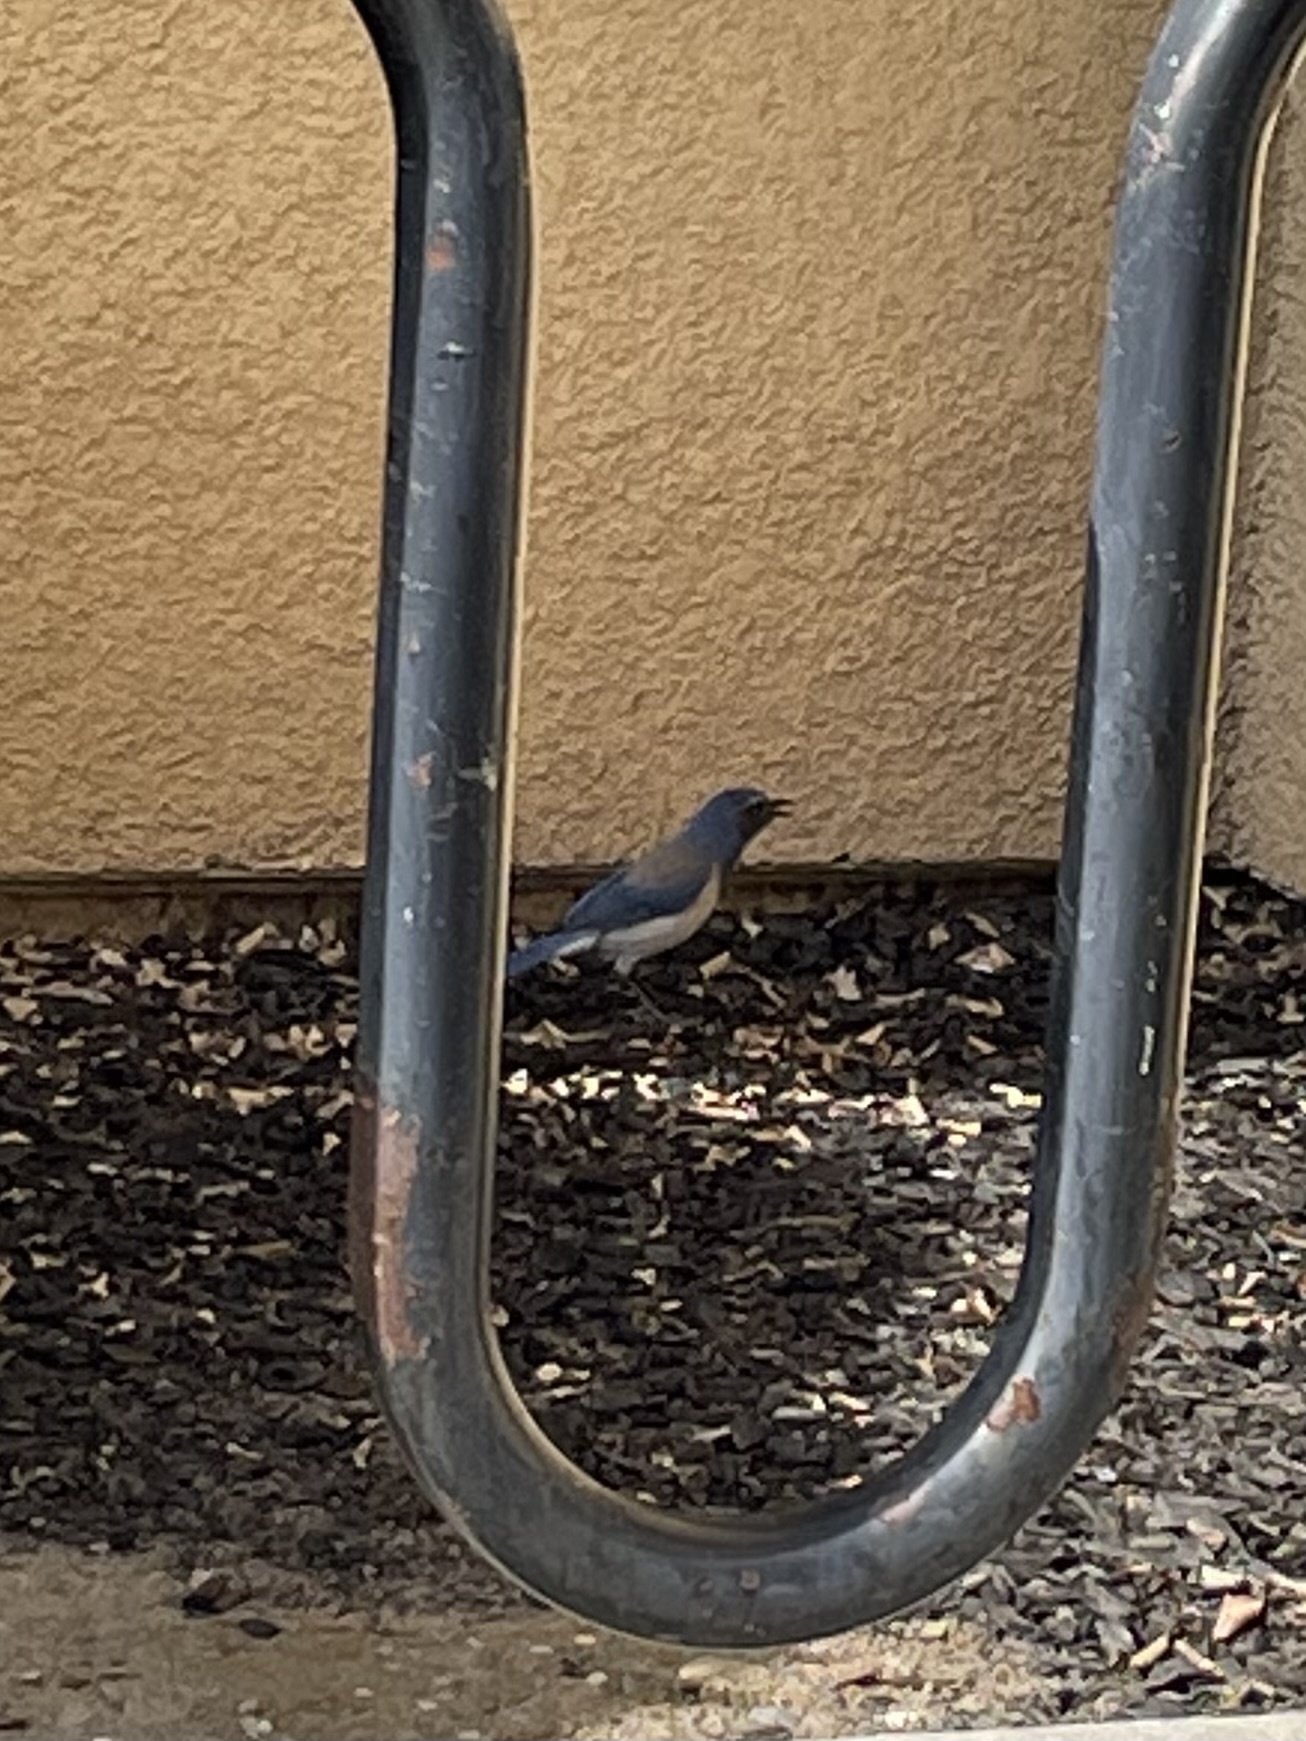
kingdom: Animalia
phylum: Chordata
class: Aves
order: Passeriformes
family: Corvidae
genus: Aphelocoma
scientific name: Aphelocoma californica
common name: California scrub-jay
